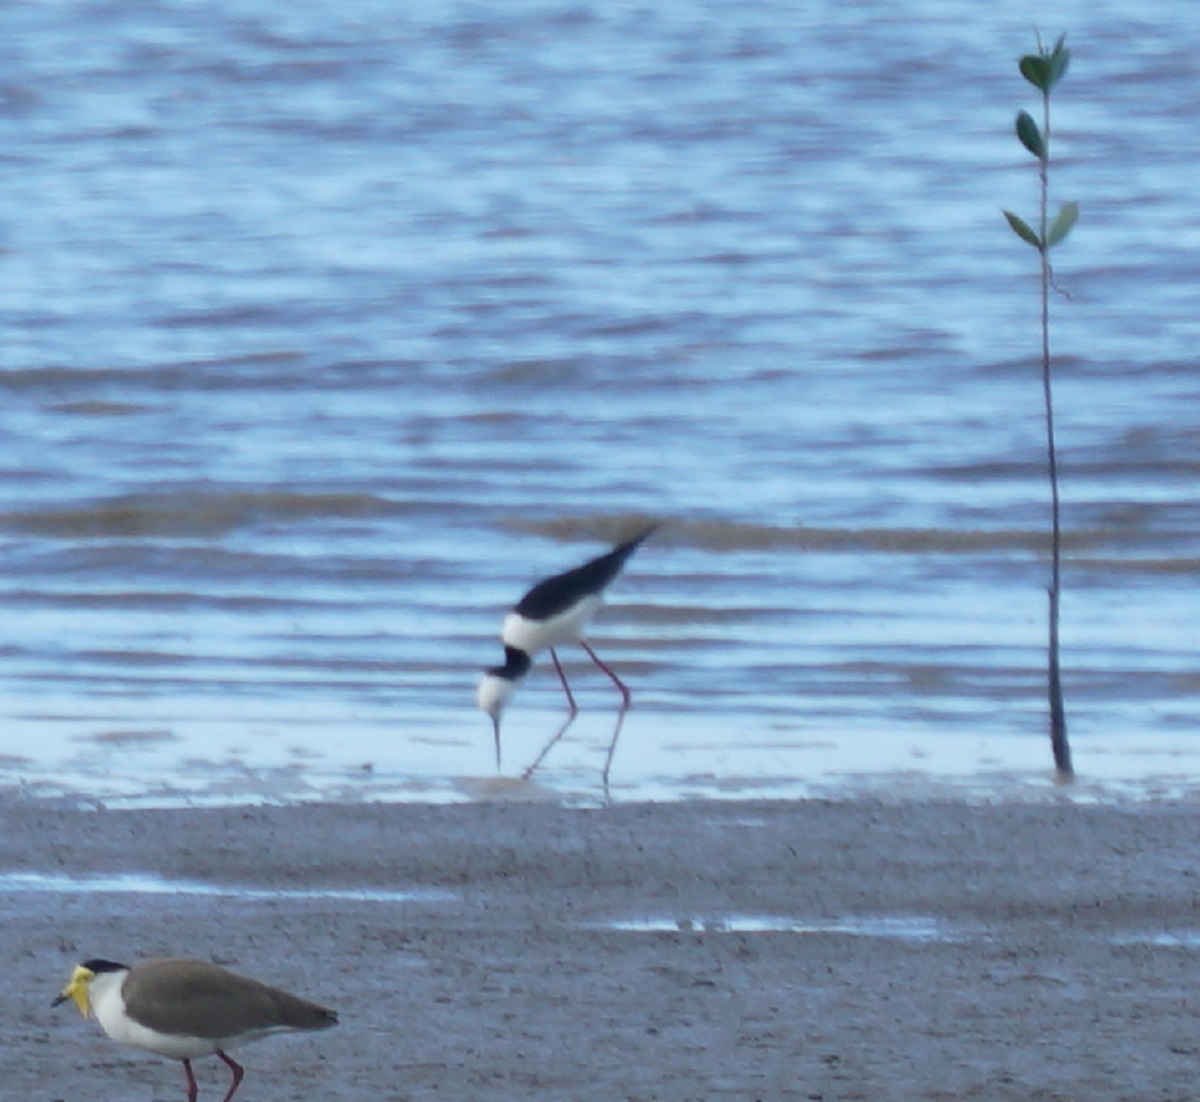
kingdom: Animalia
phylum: Chordata
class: Aves
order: Charadriiformes
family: Recurvirostridae
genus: Himantopus
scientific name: Himantopus leucocephalus
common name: White-headed stilt
